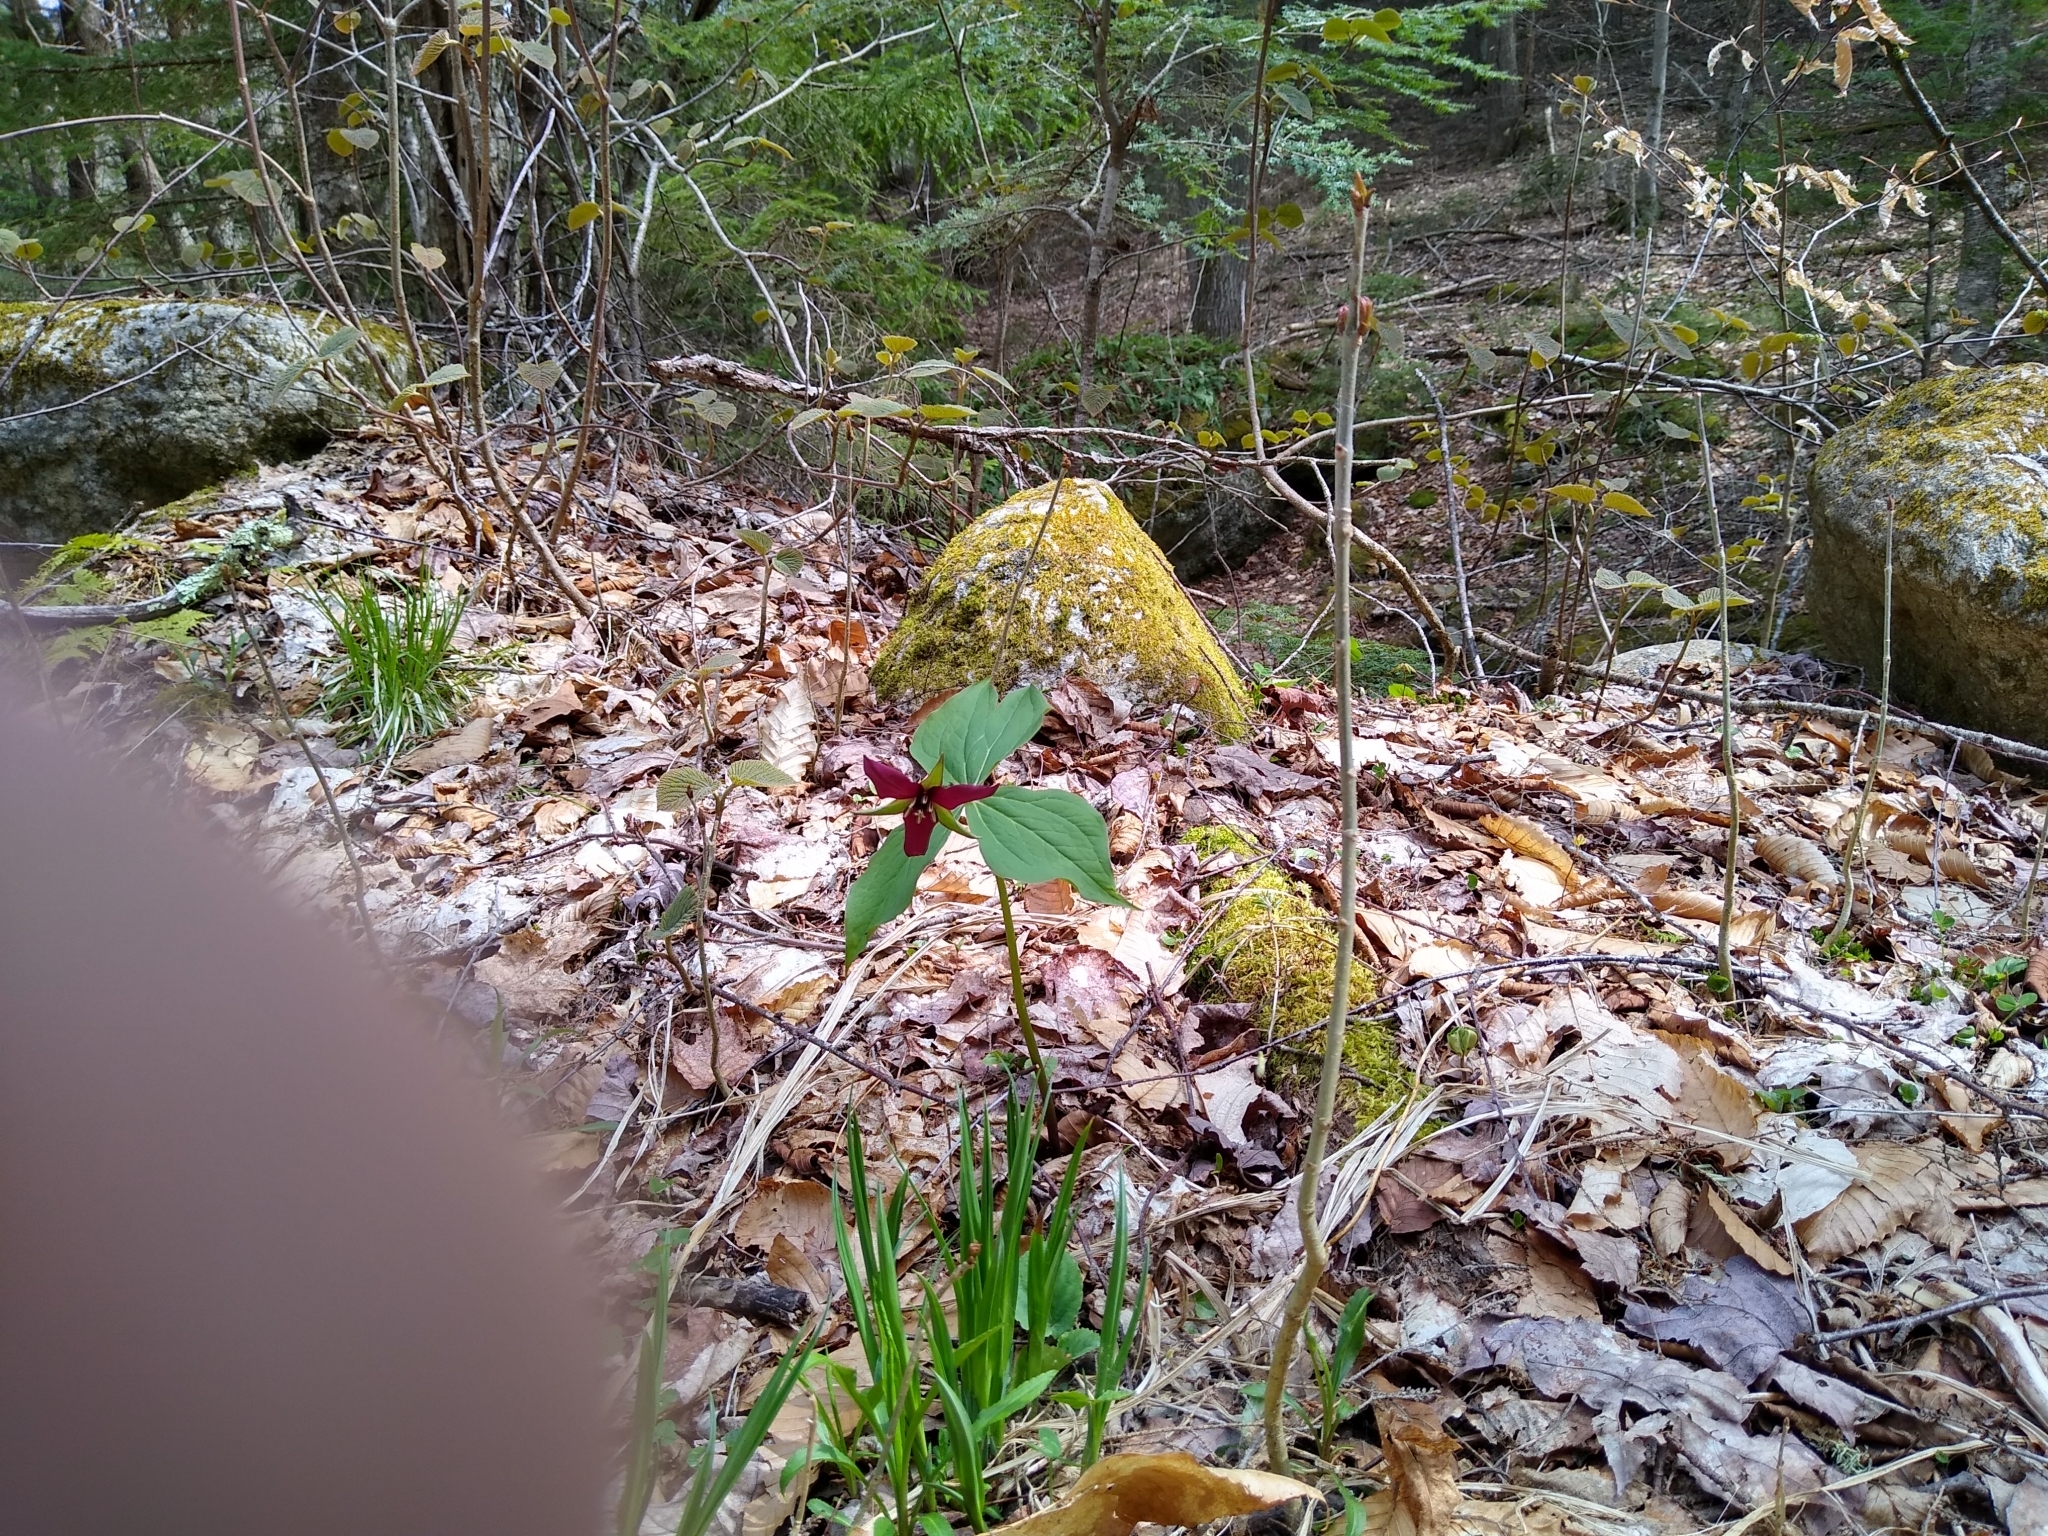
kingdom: Plantae
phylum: Tracheophyta
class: Liliopsida
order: Liliales
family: Melanthiaceae
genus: Trillium
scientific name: Trillium erectum
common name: Purple trillium
